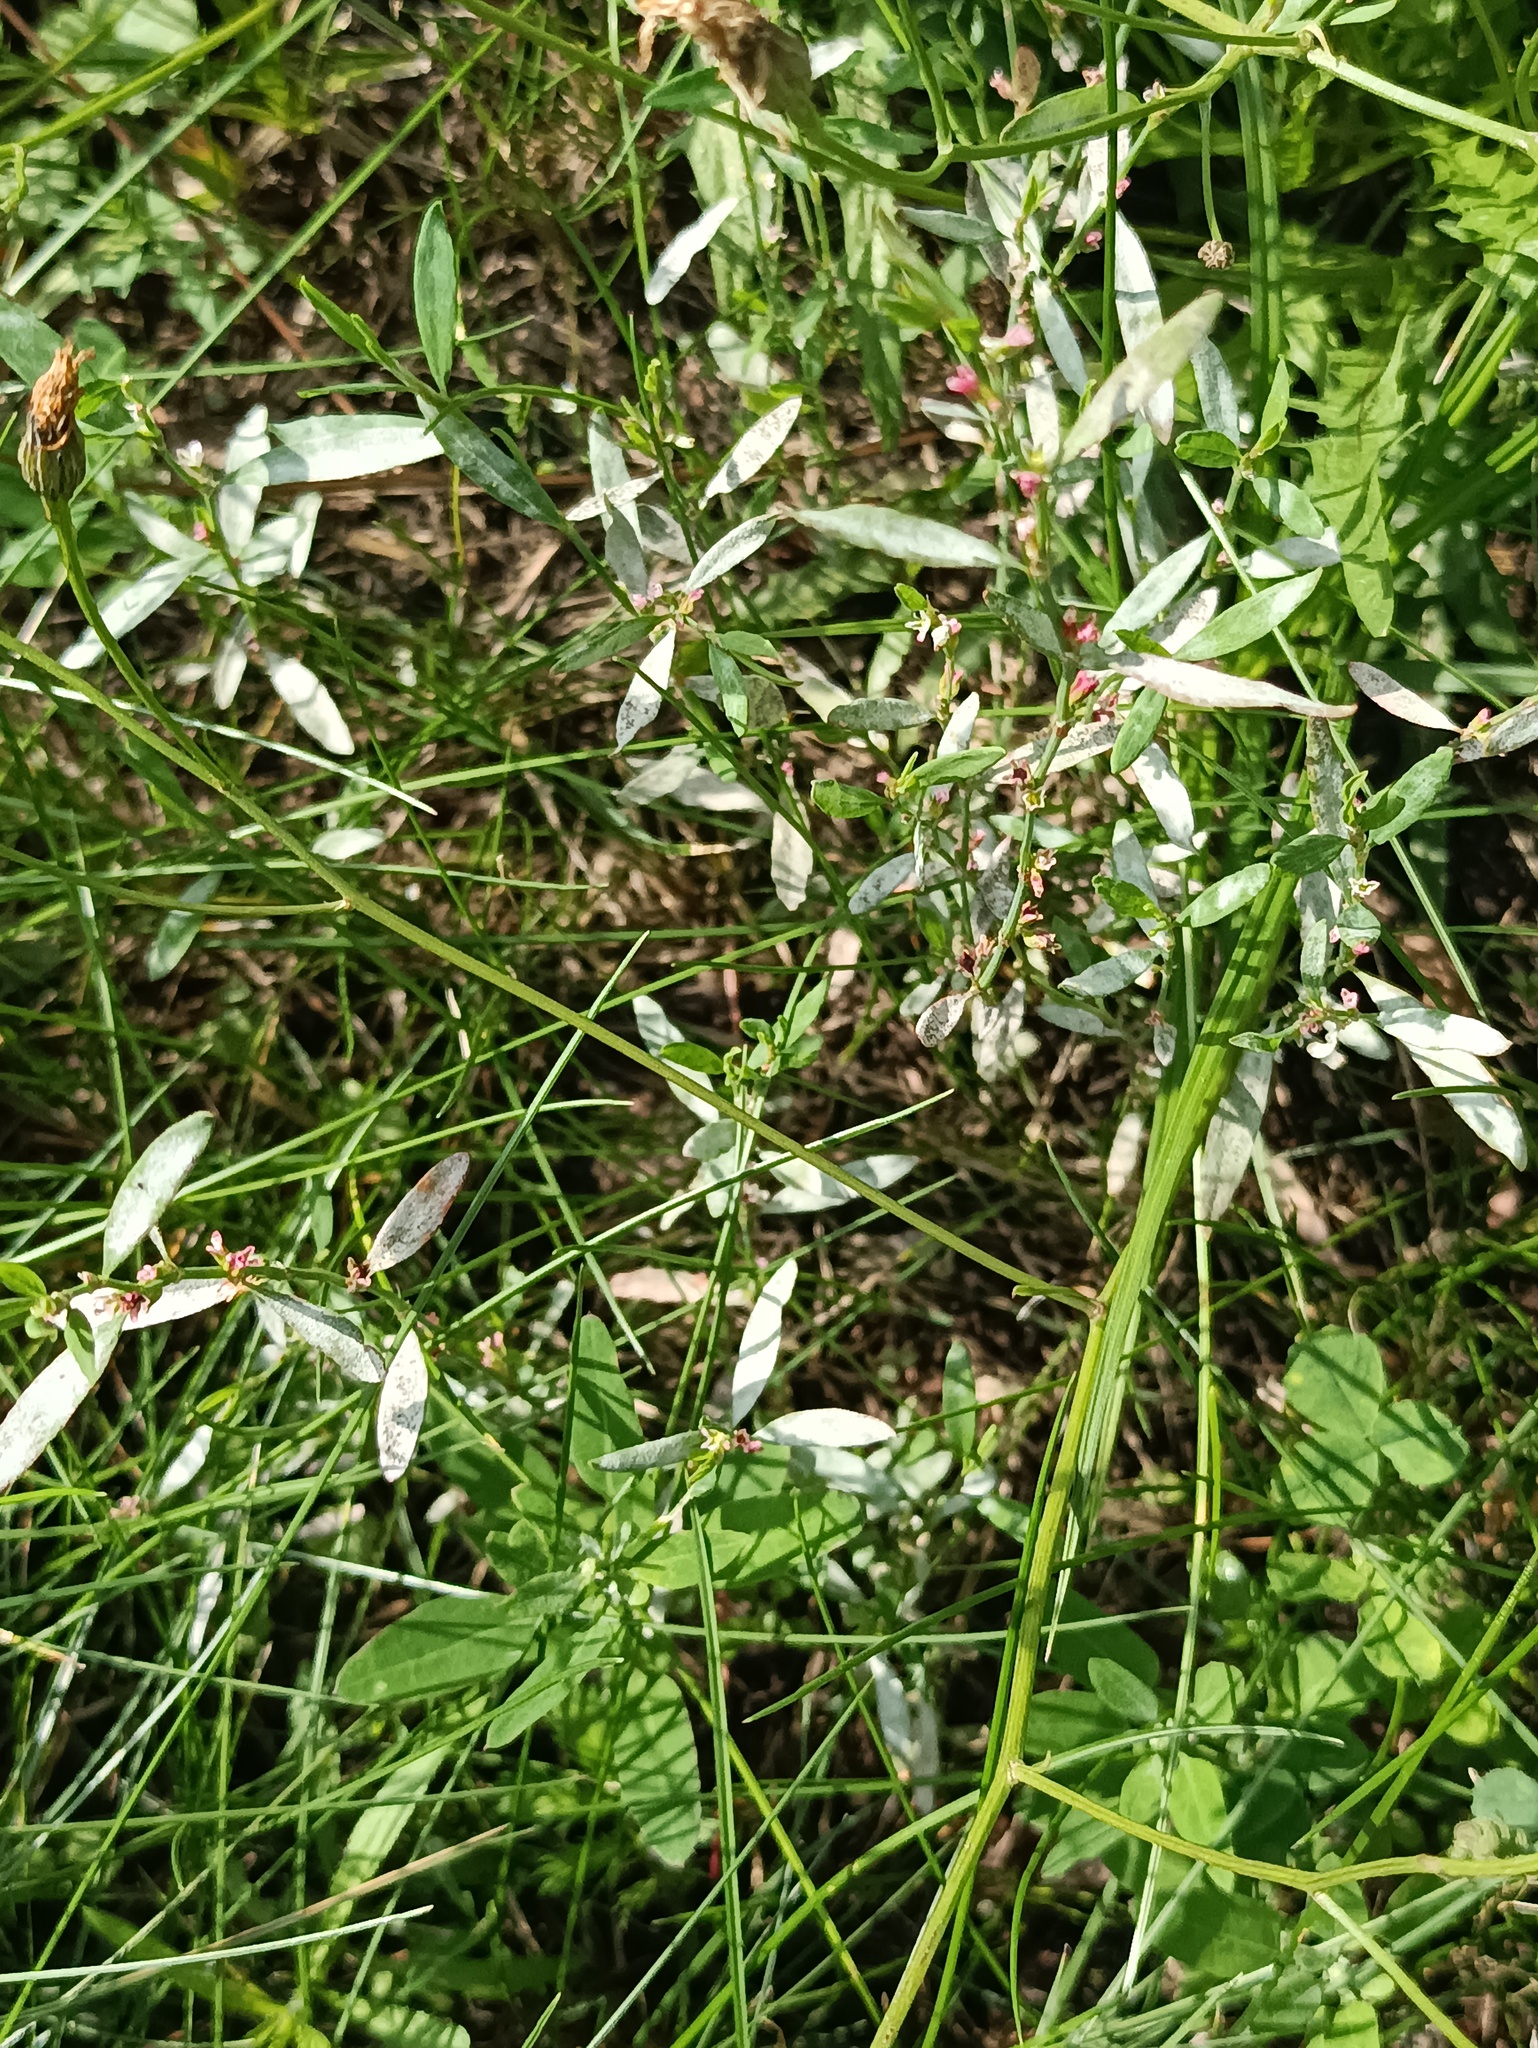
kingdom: Fungi
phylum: Ascomycota
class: Leotiomycetes
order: Helotiales
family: Erysiphaceae
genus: Erysiphe
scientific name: Erysiphe polygoni
